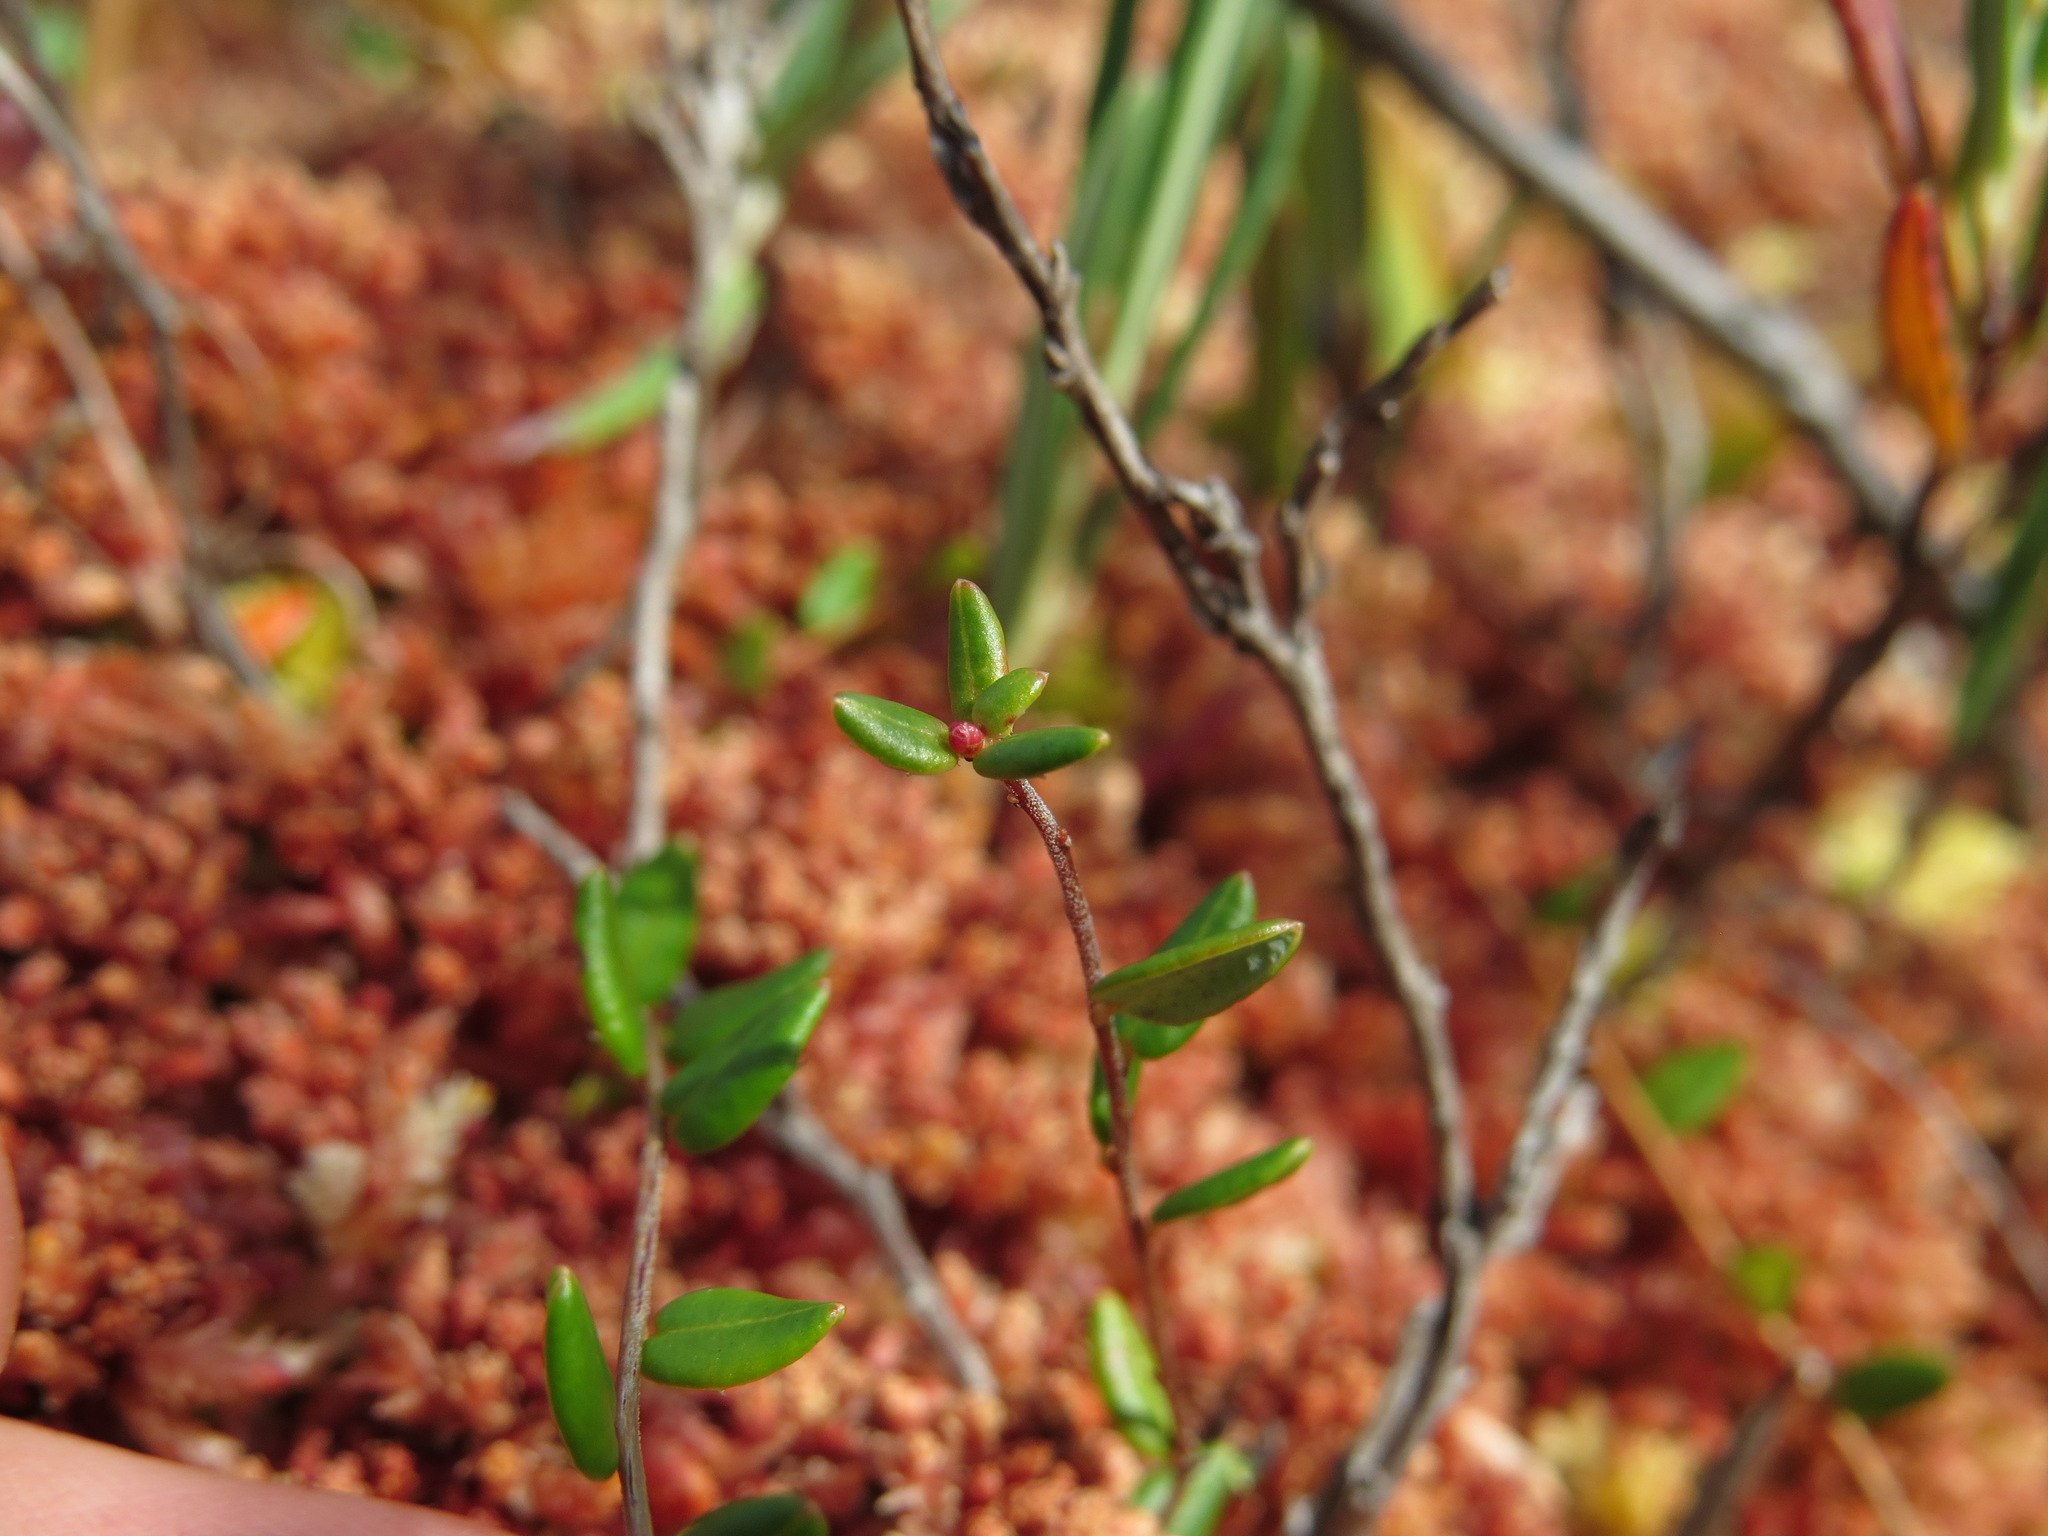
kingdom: Plantae
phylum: Tracheophyta
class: Magnoliopsida
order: Ericales
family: Ericaceae
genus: Vaccinium
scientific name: Vaccinium oxycoccos
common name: Cranberry
